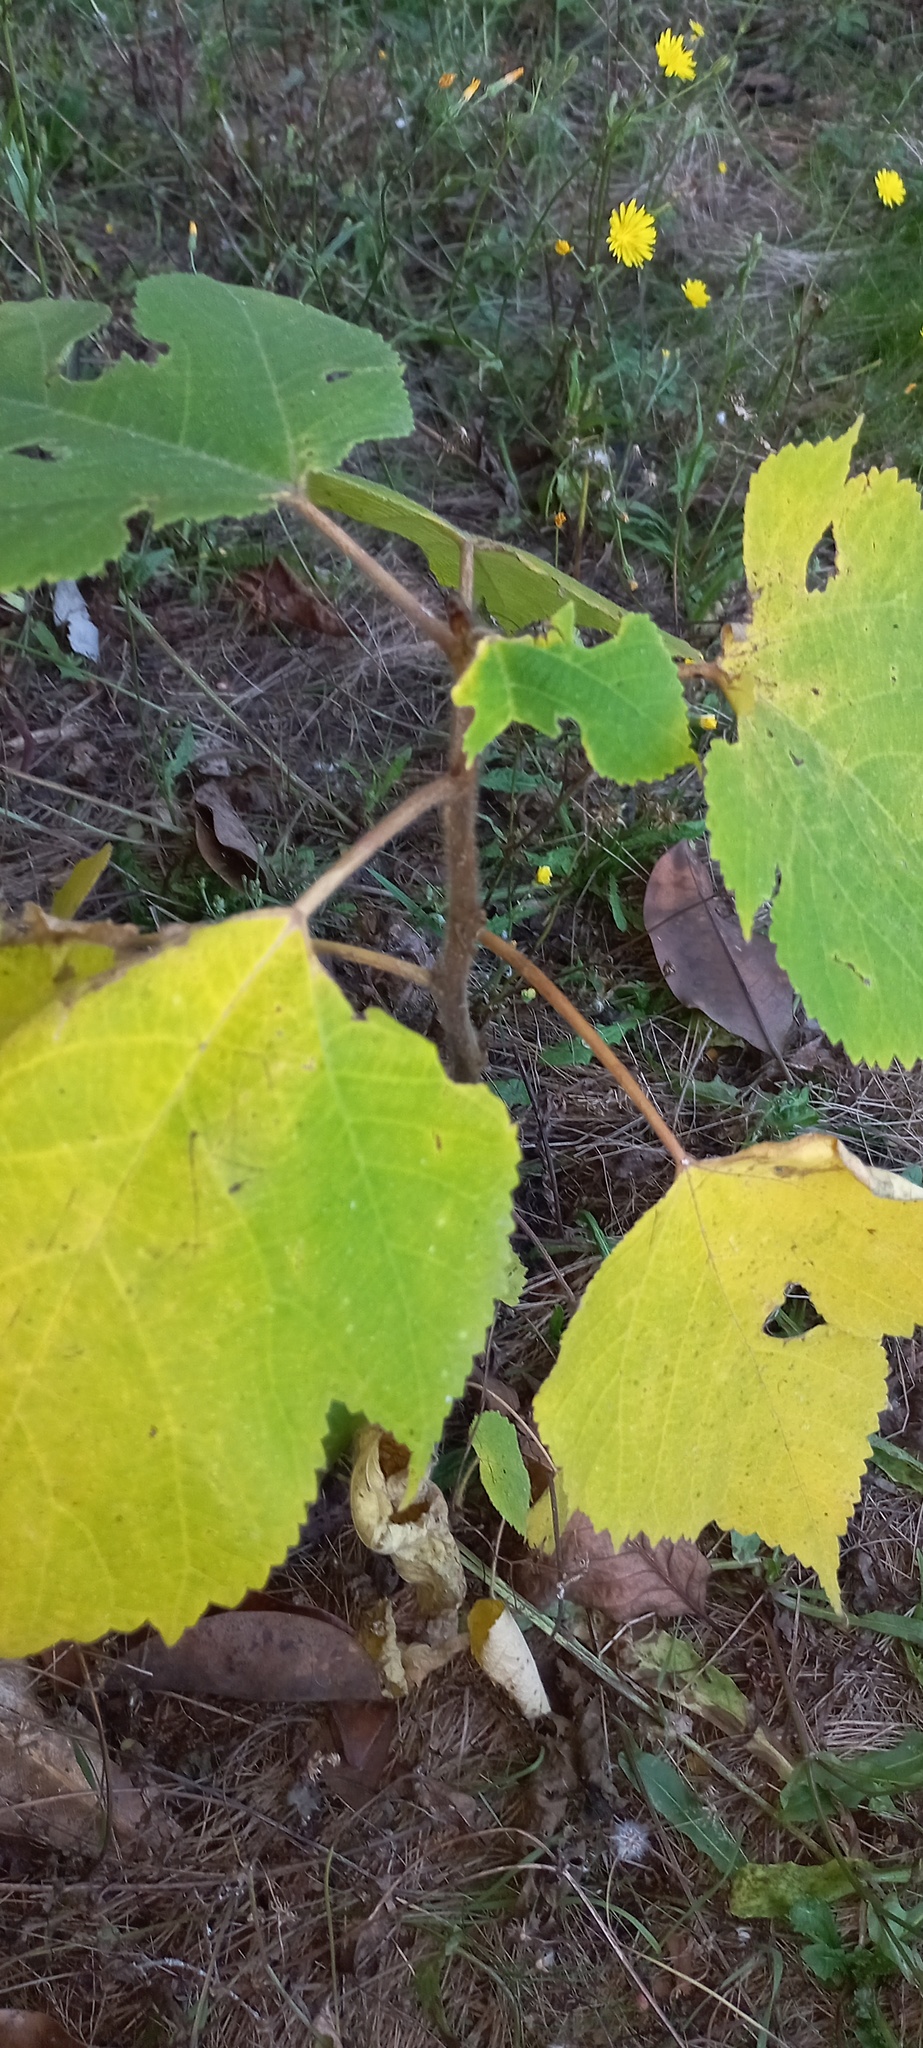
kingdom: Plantae
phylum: Tracheophyta
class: Magnoliopsida
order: Rosales
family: Moraceae
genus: Broussonetia
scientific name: Broussonetia papyrifera
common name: Paper mulberry
